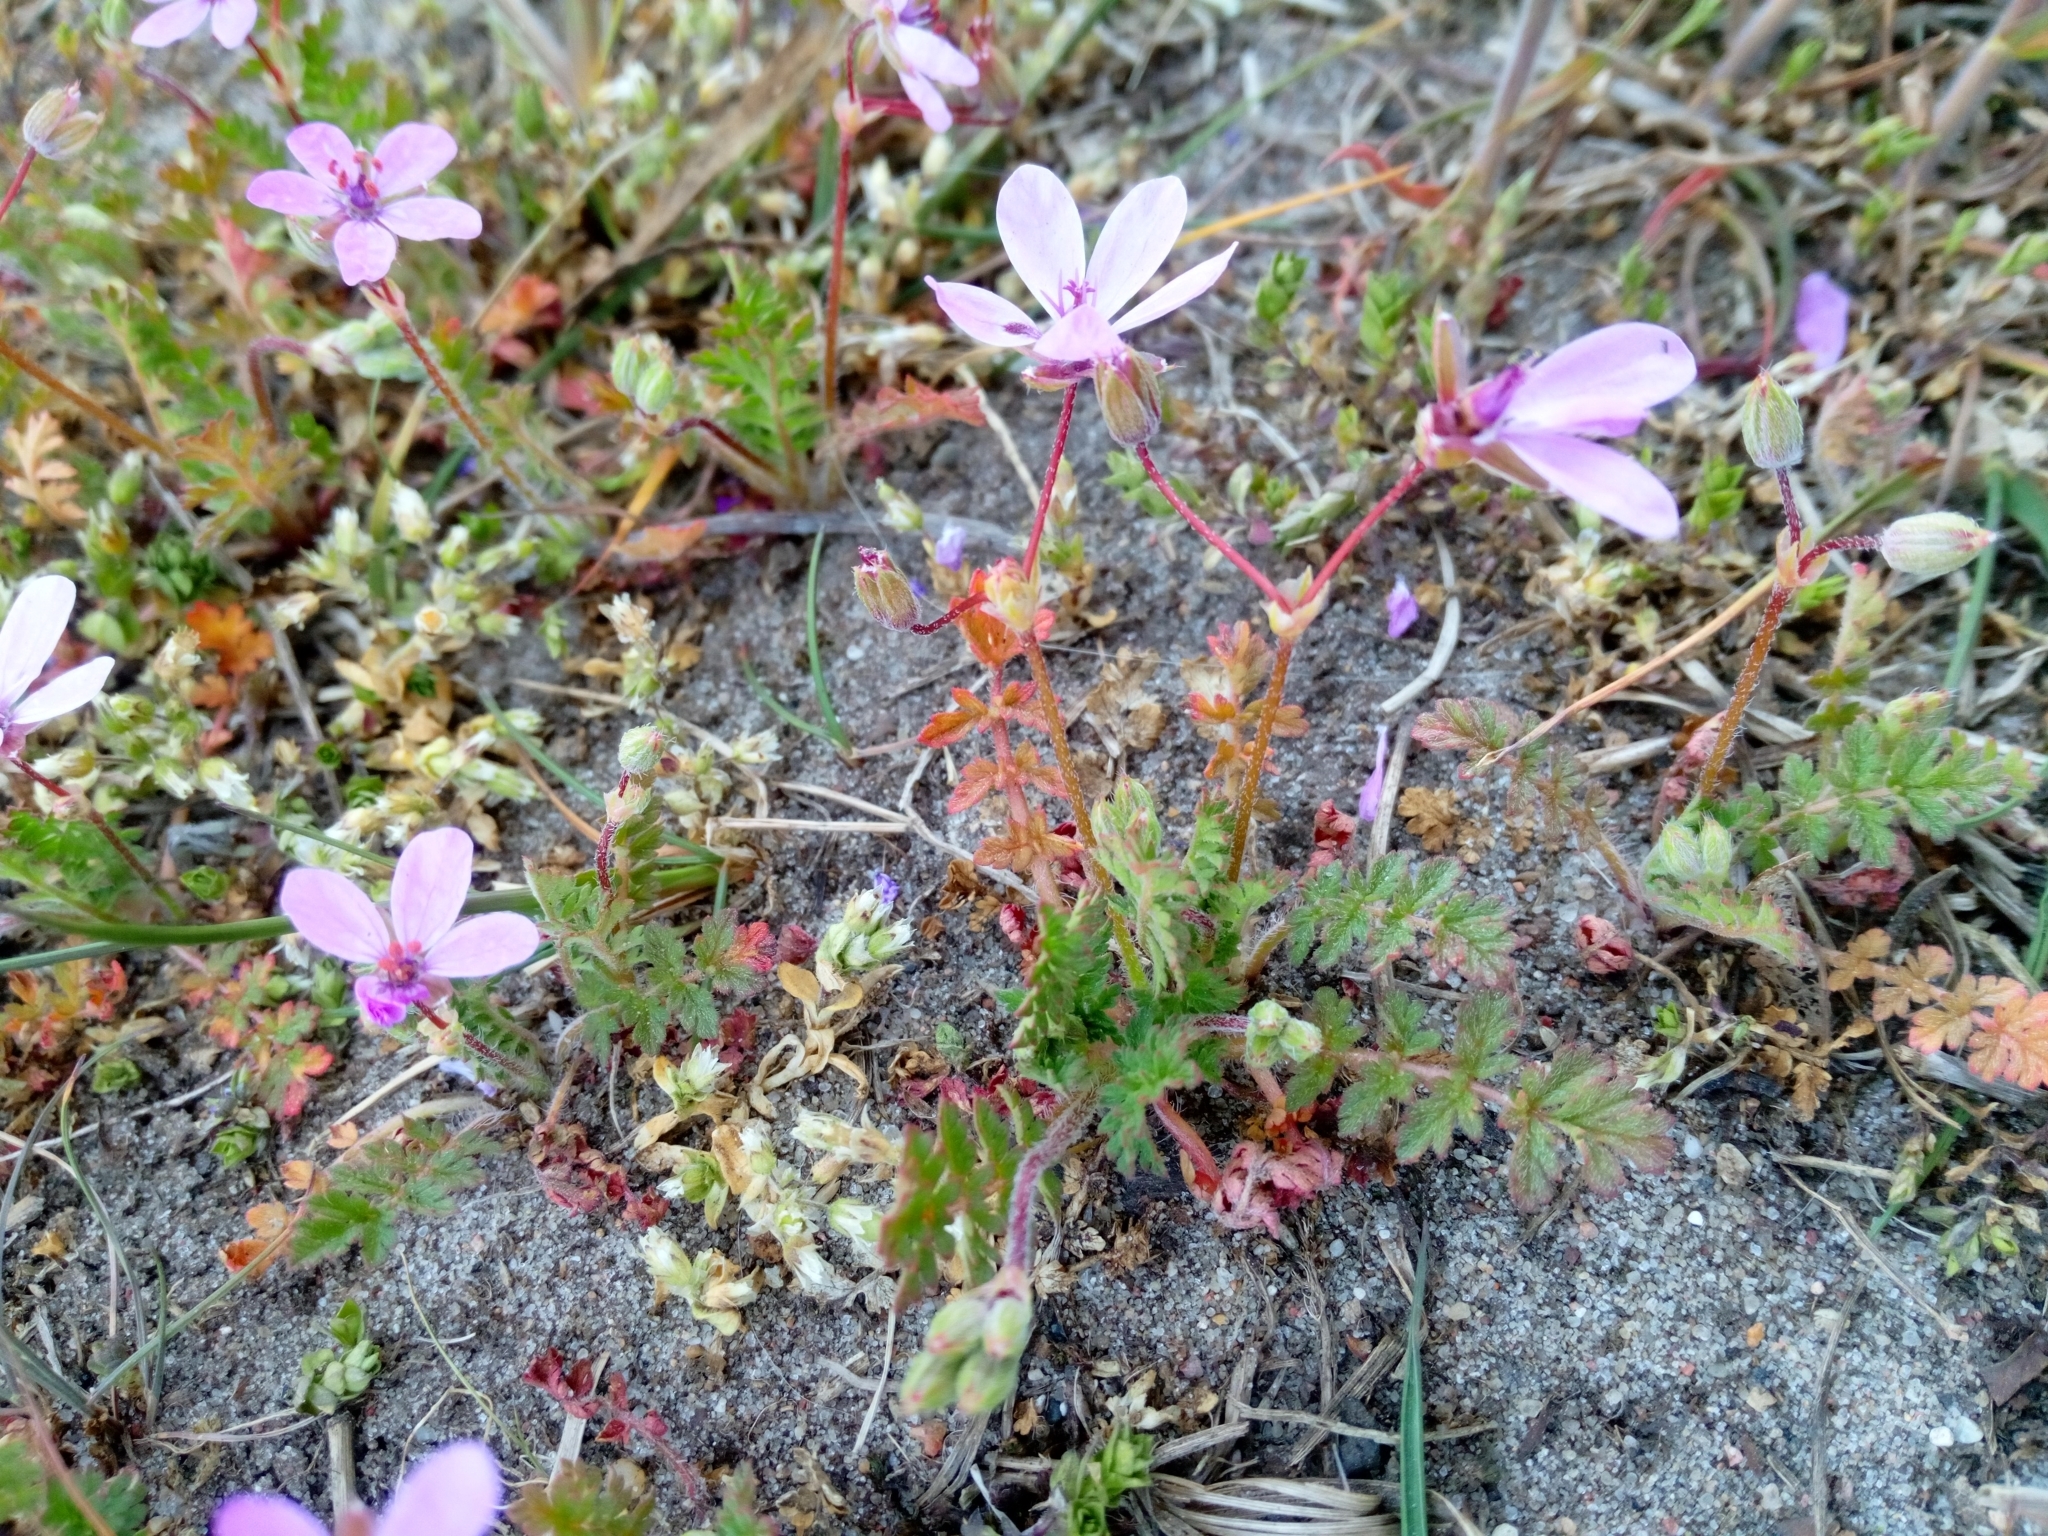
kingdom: Plantae
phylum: Tracheophyta
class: Magnoliopsida
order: Geraniales
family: Geraniaceae
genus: Erodium
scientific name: Erodium cicutarium
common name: Common stork's-bill
